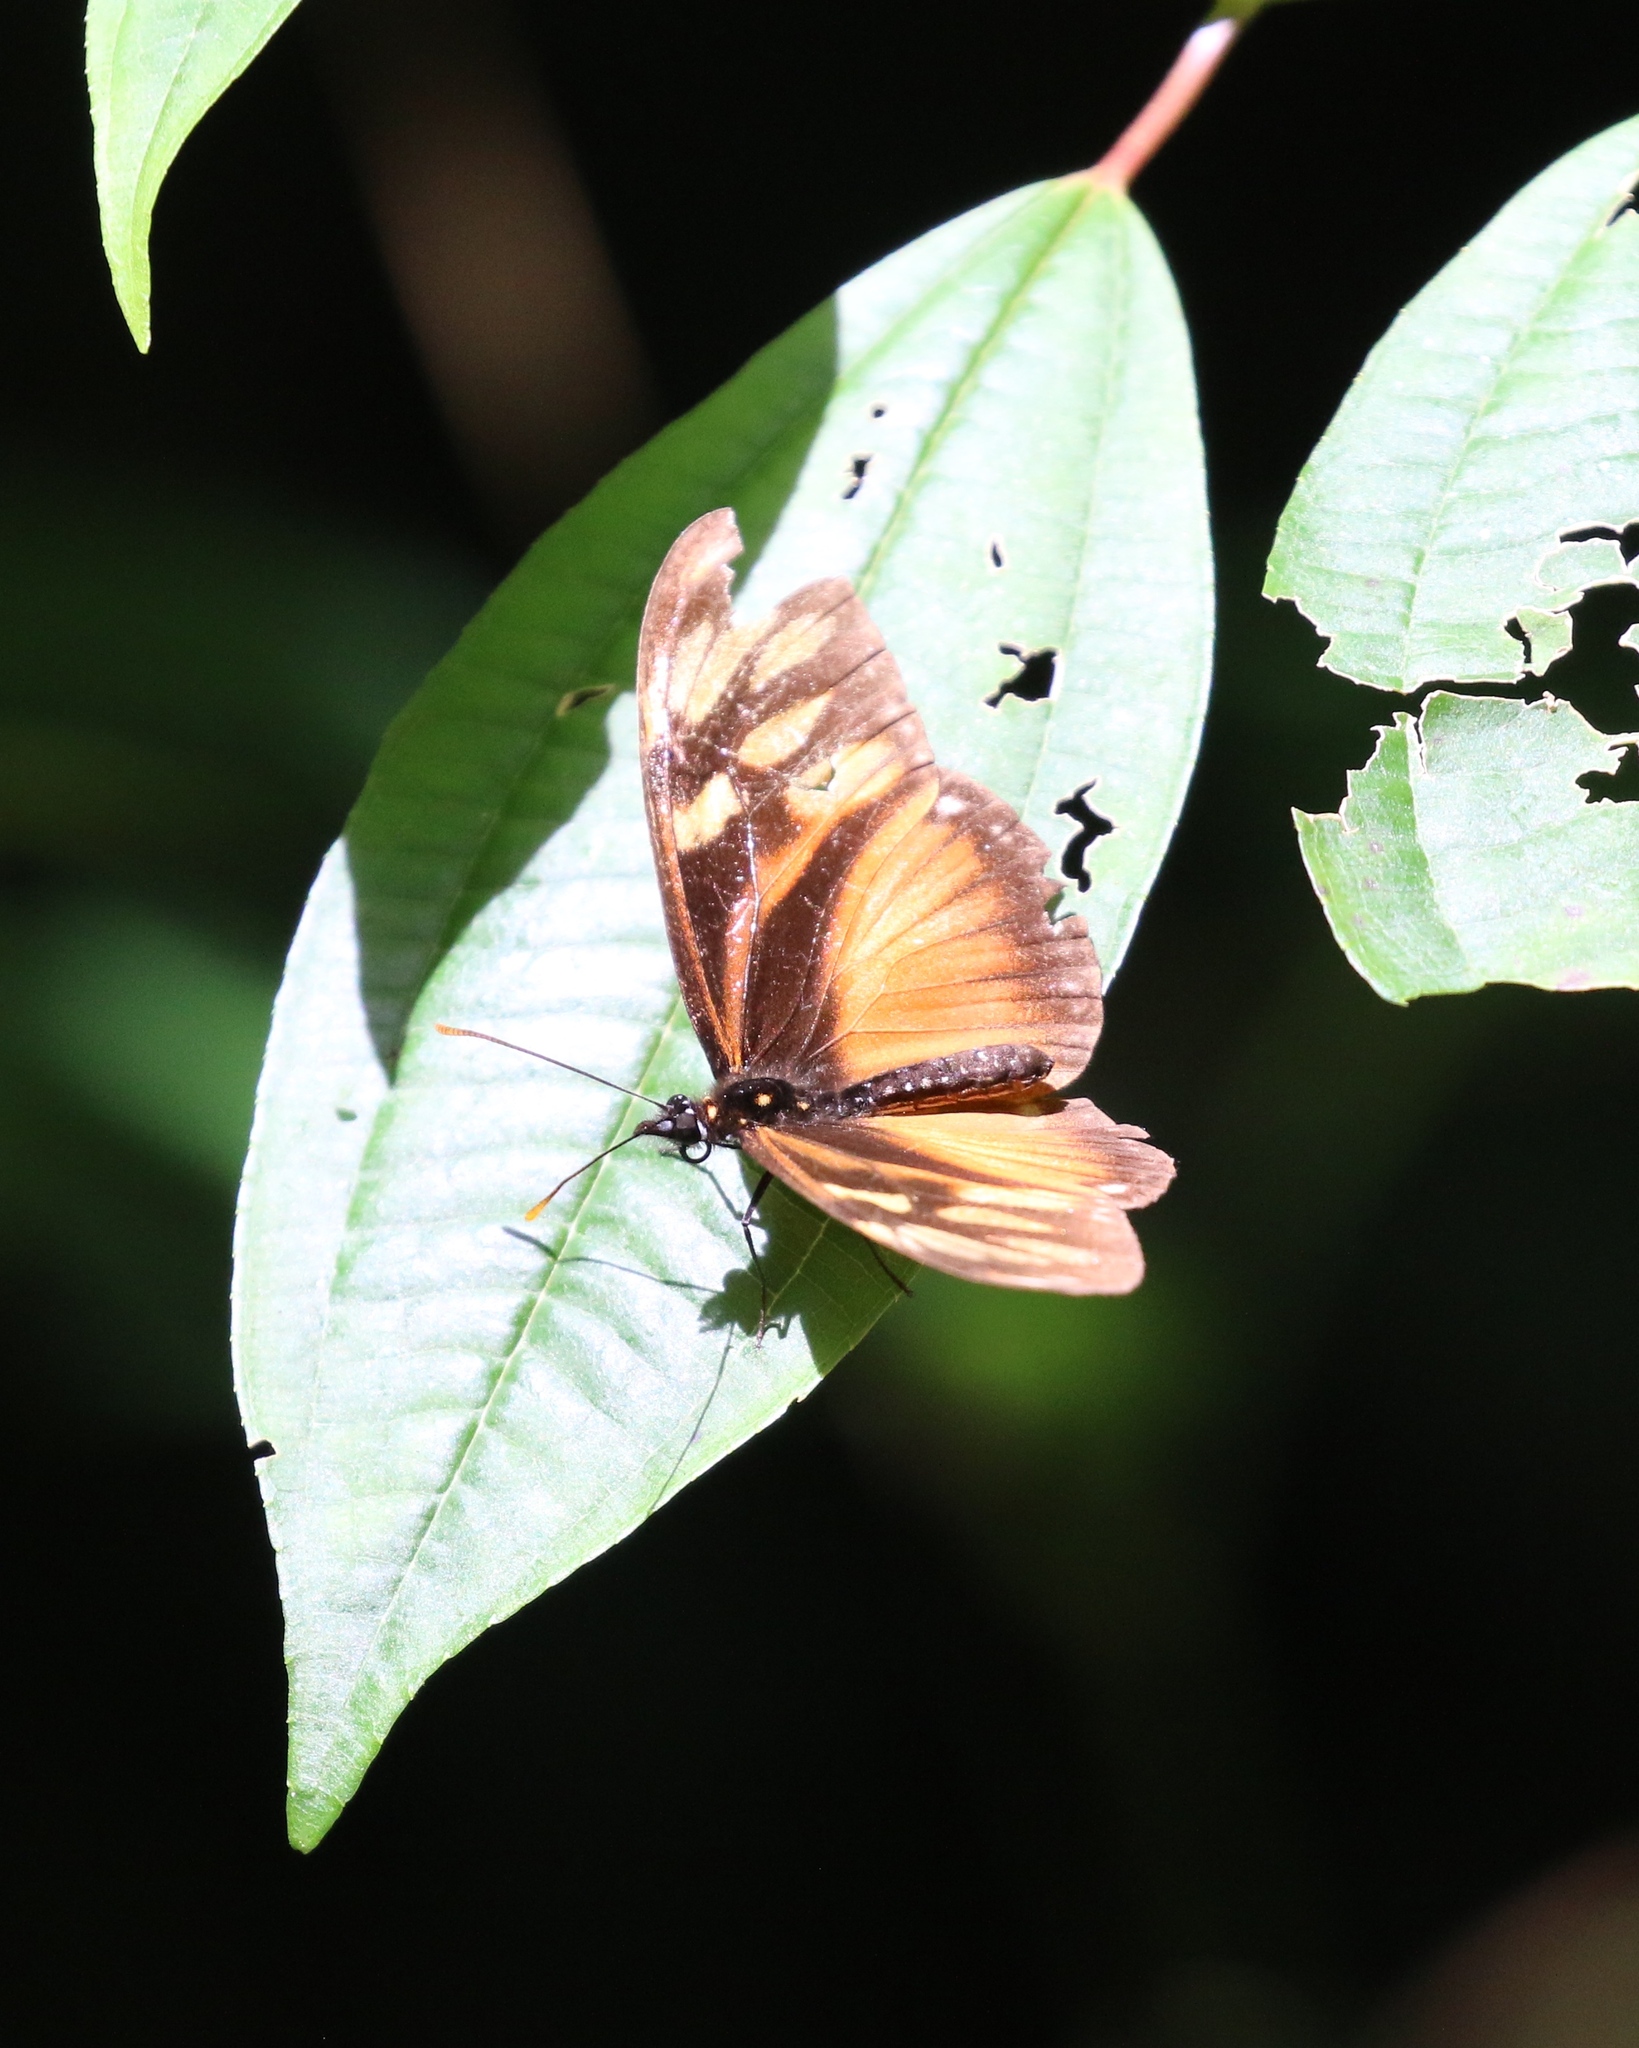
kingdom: Animalia
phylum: Arthropoda
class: Insecta
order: Lepidoptera
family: Nymphalidae
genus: Eueides
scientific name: Eueides procula
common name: Nonpassionate heliconian
